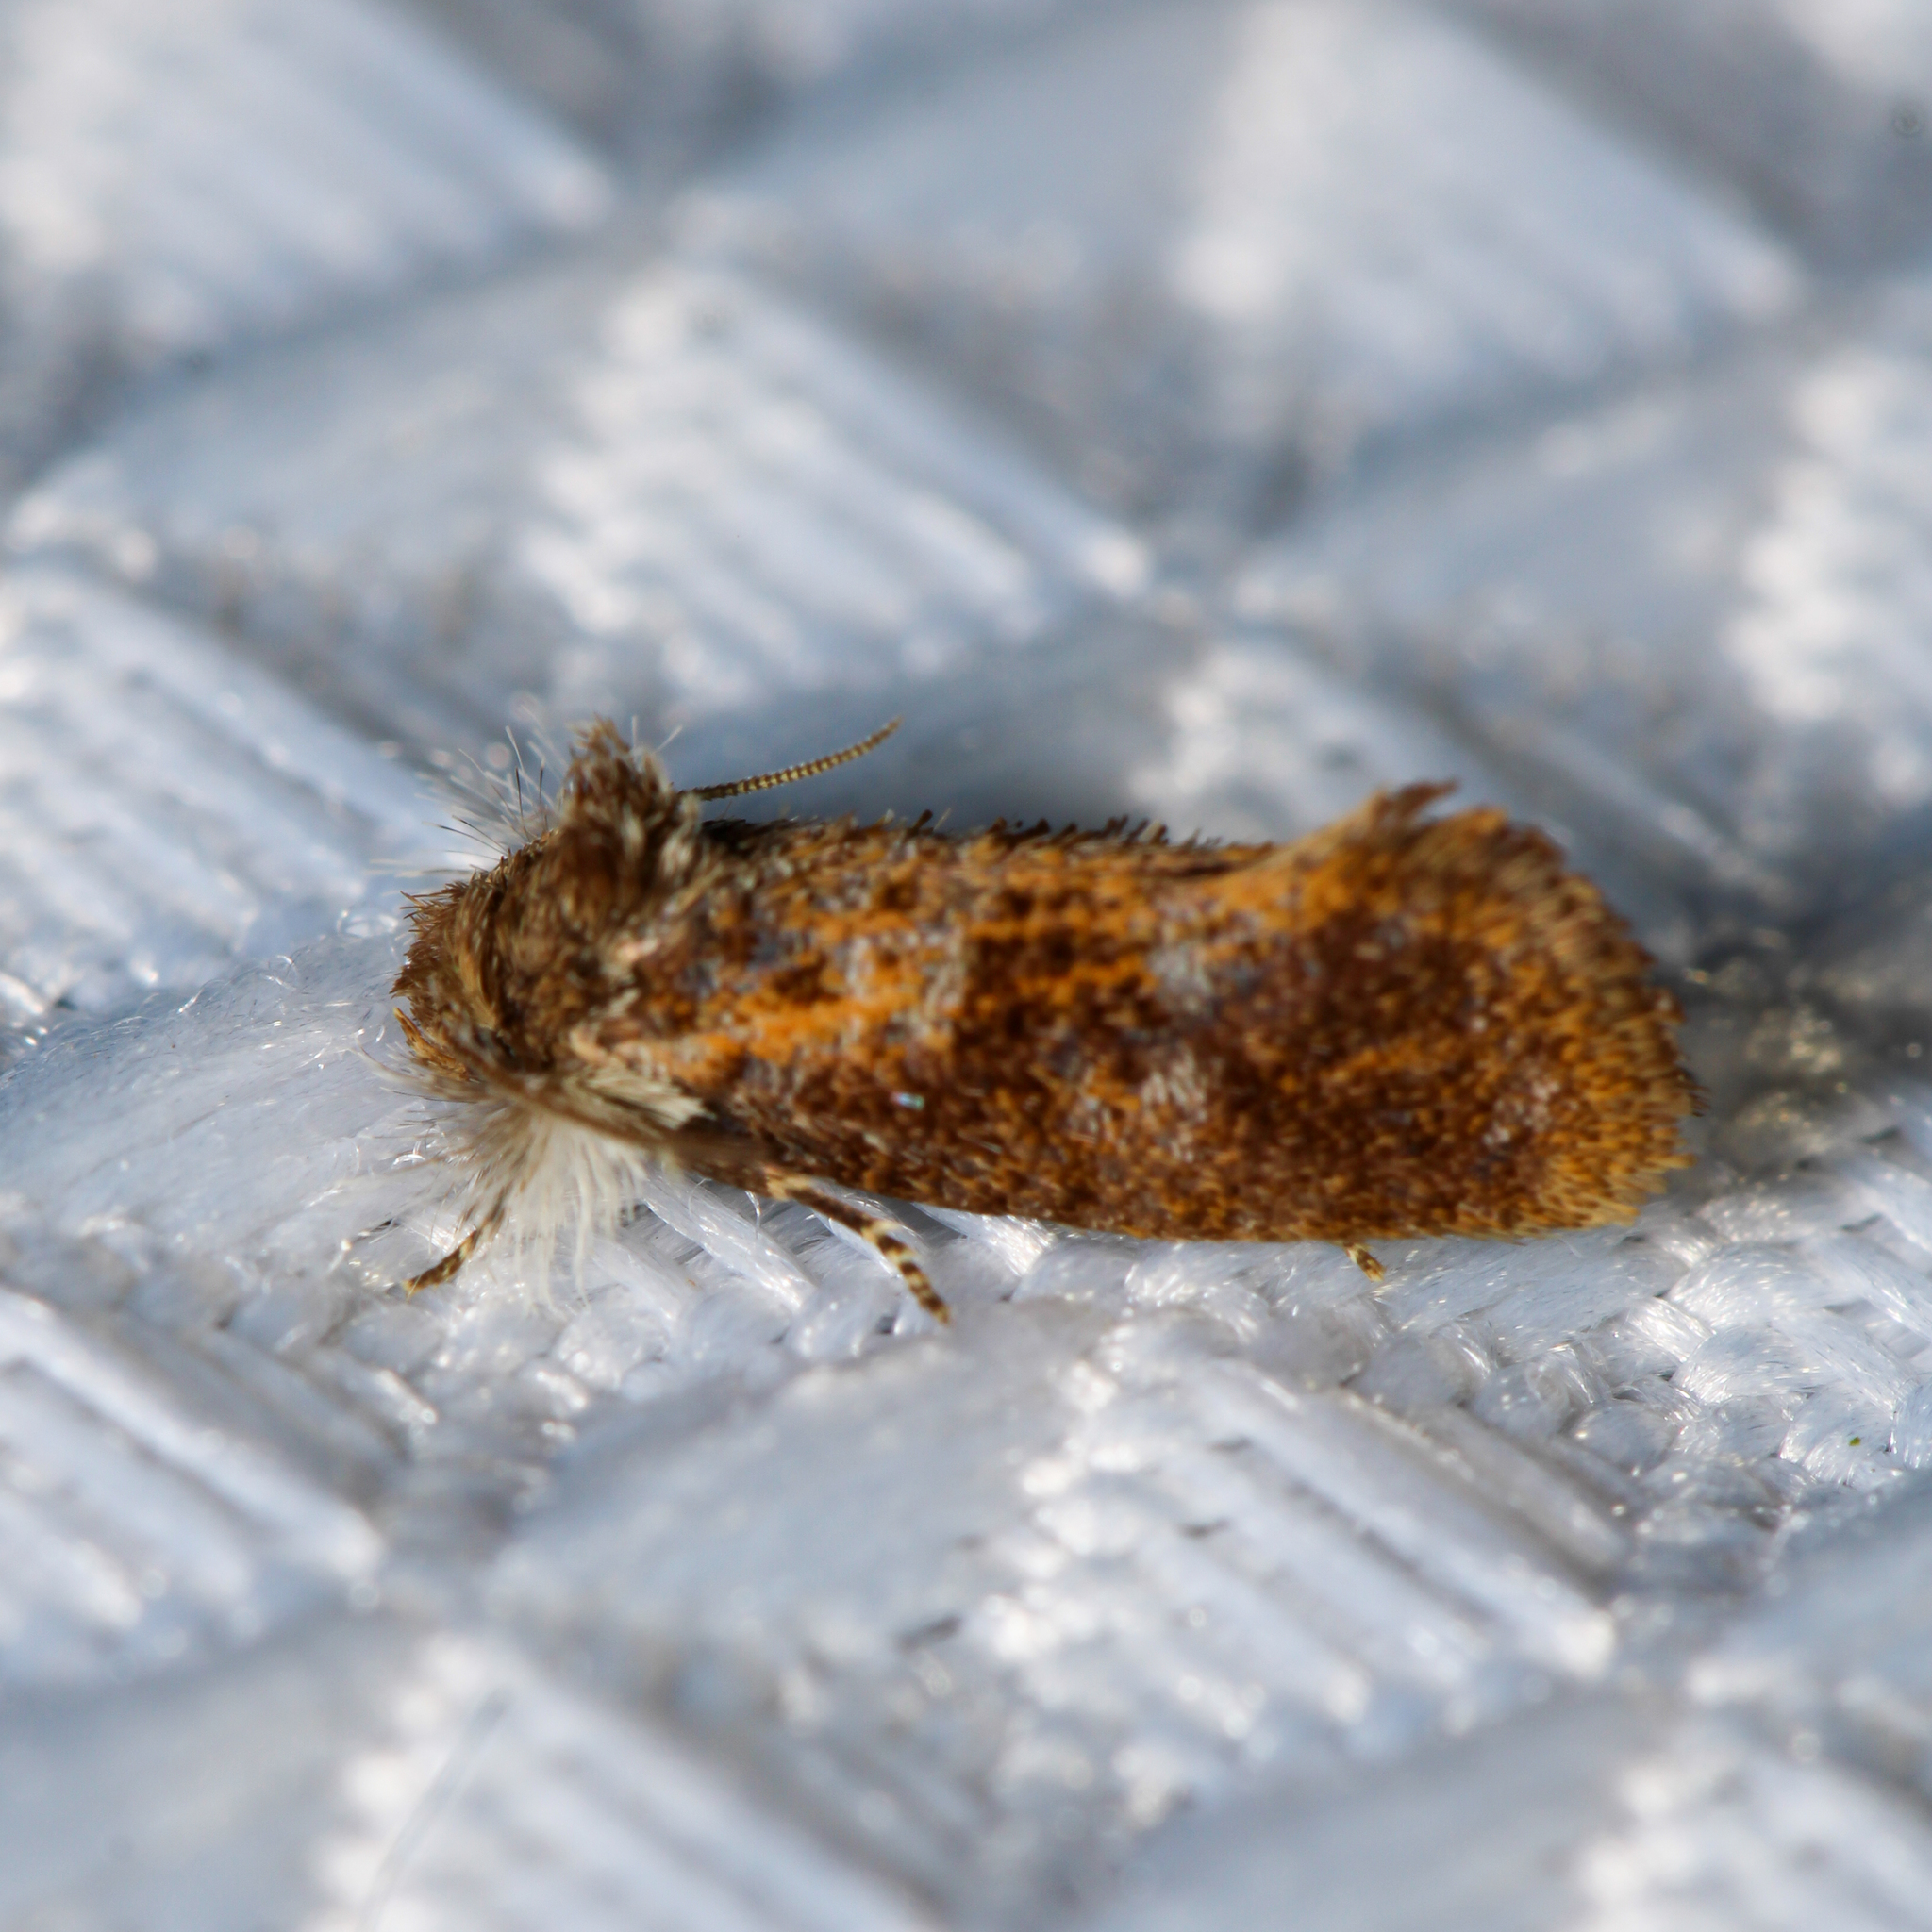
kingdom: Animalia
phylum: Arthropoda
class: Insecta
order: Lepidoptera
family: Tineidae
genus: Acrolophus
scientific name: Acrolophus panamae
